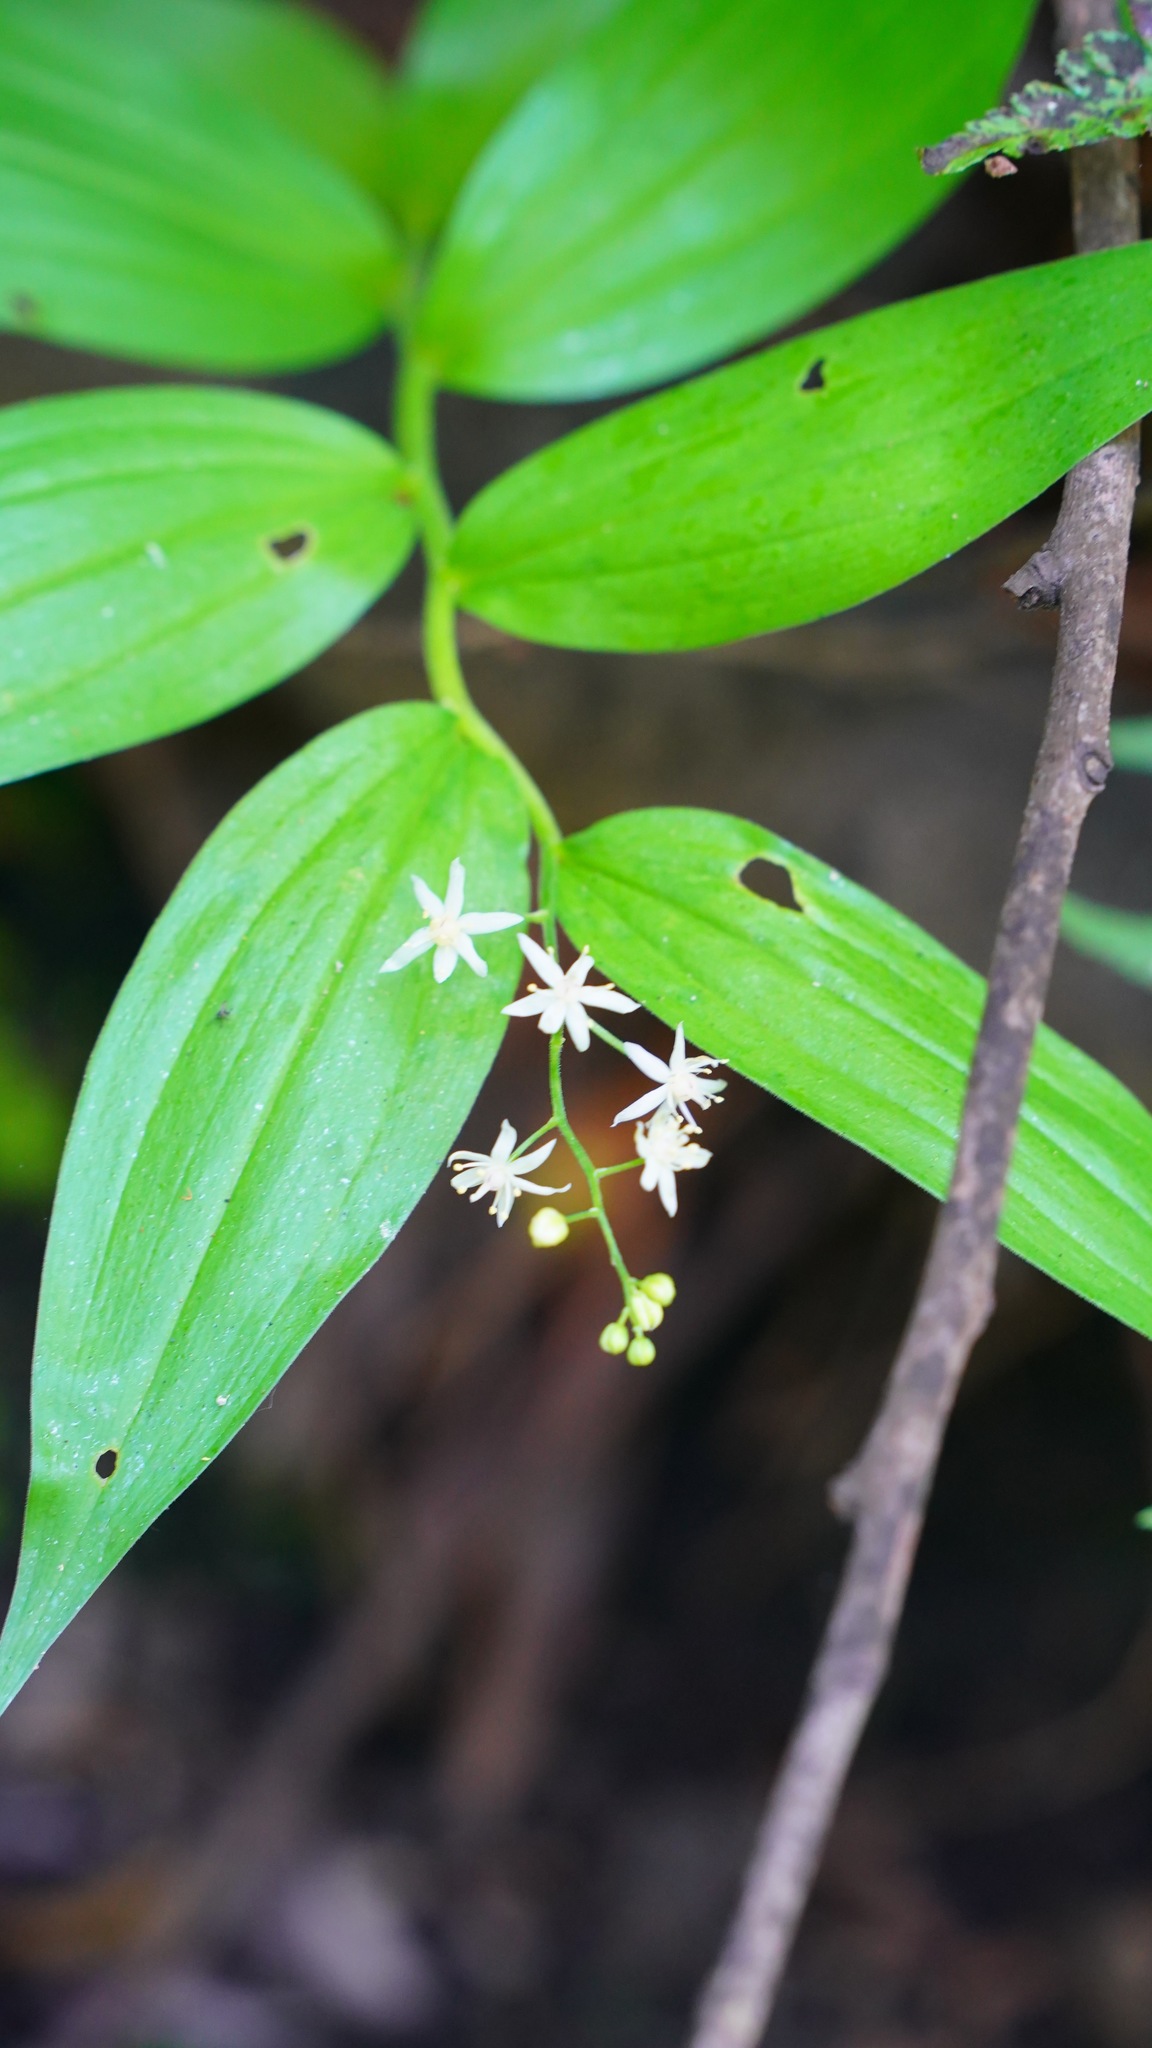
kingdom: Plantae
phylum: Tracheophyta
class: Liliopsida
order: Asparagales
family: Asparagaceae
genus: Maianthemum
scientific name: Maianthemum stellatum
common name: Little false solomon's seal
